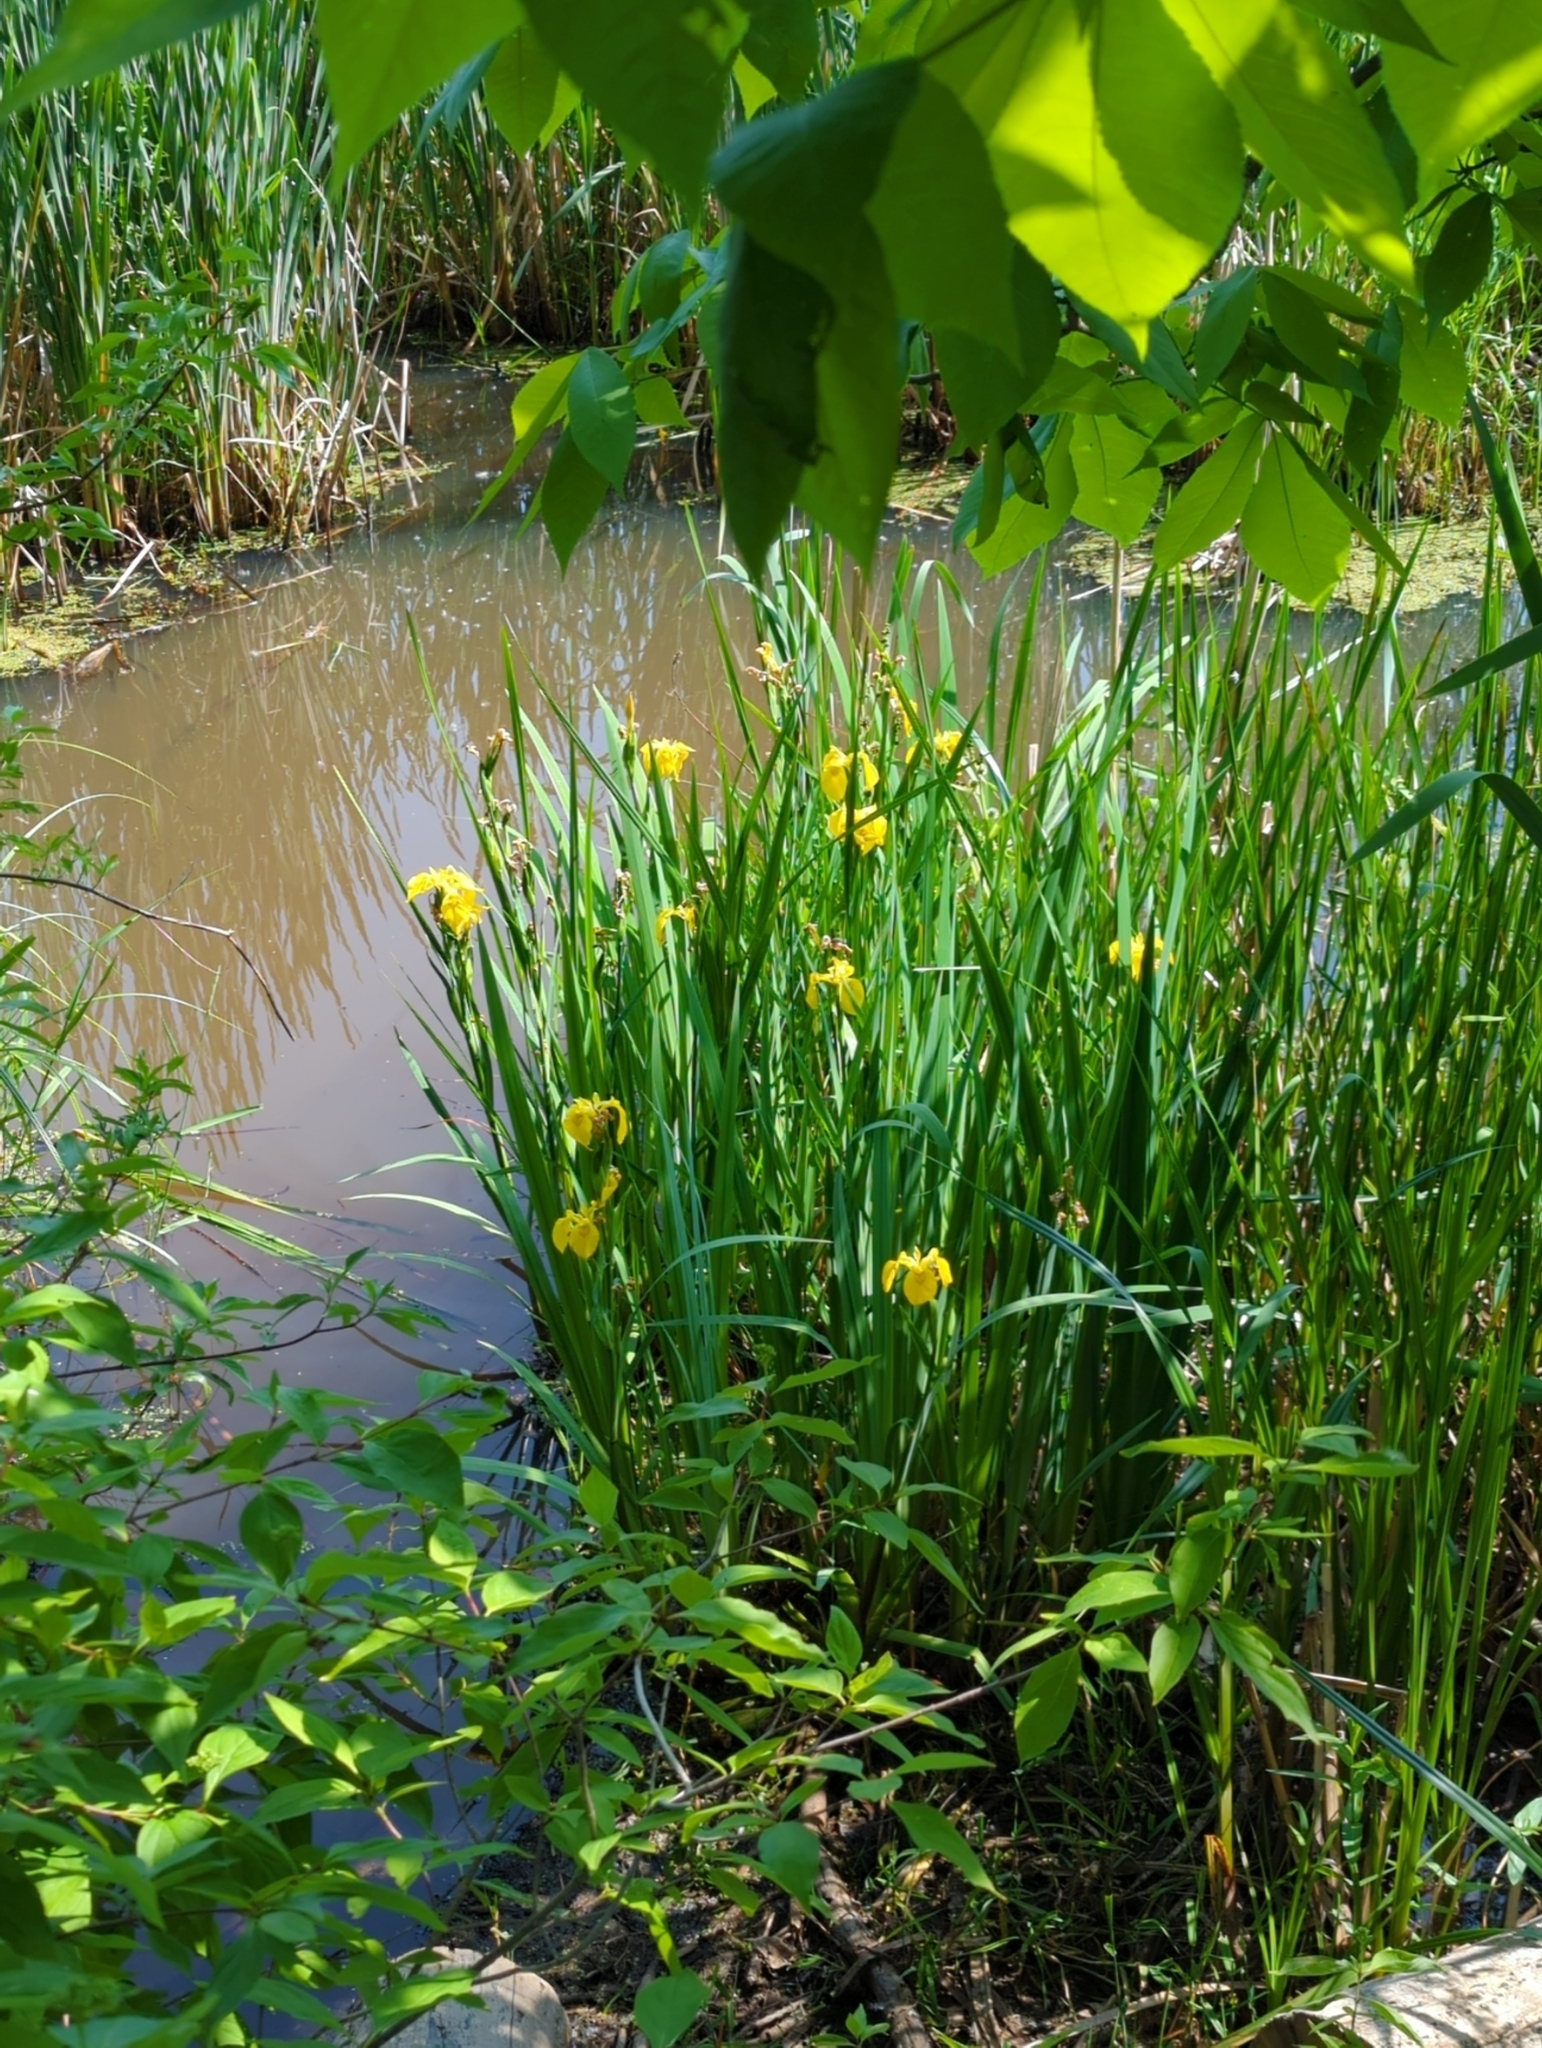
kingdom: Plantae
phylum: Tracheophyta
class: Liliopsida
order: Asparagales
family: Iridaceae
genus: Iris
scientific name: Iris pseudacorus
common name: Yellow flag
